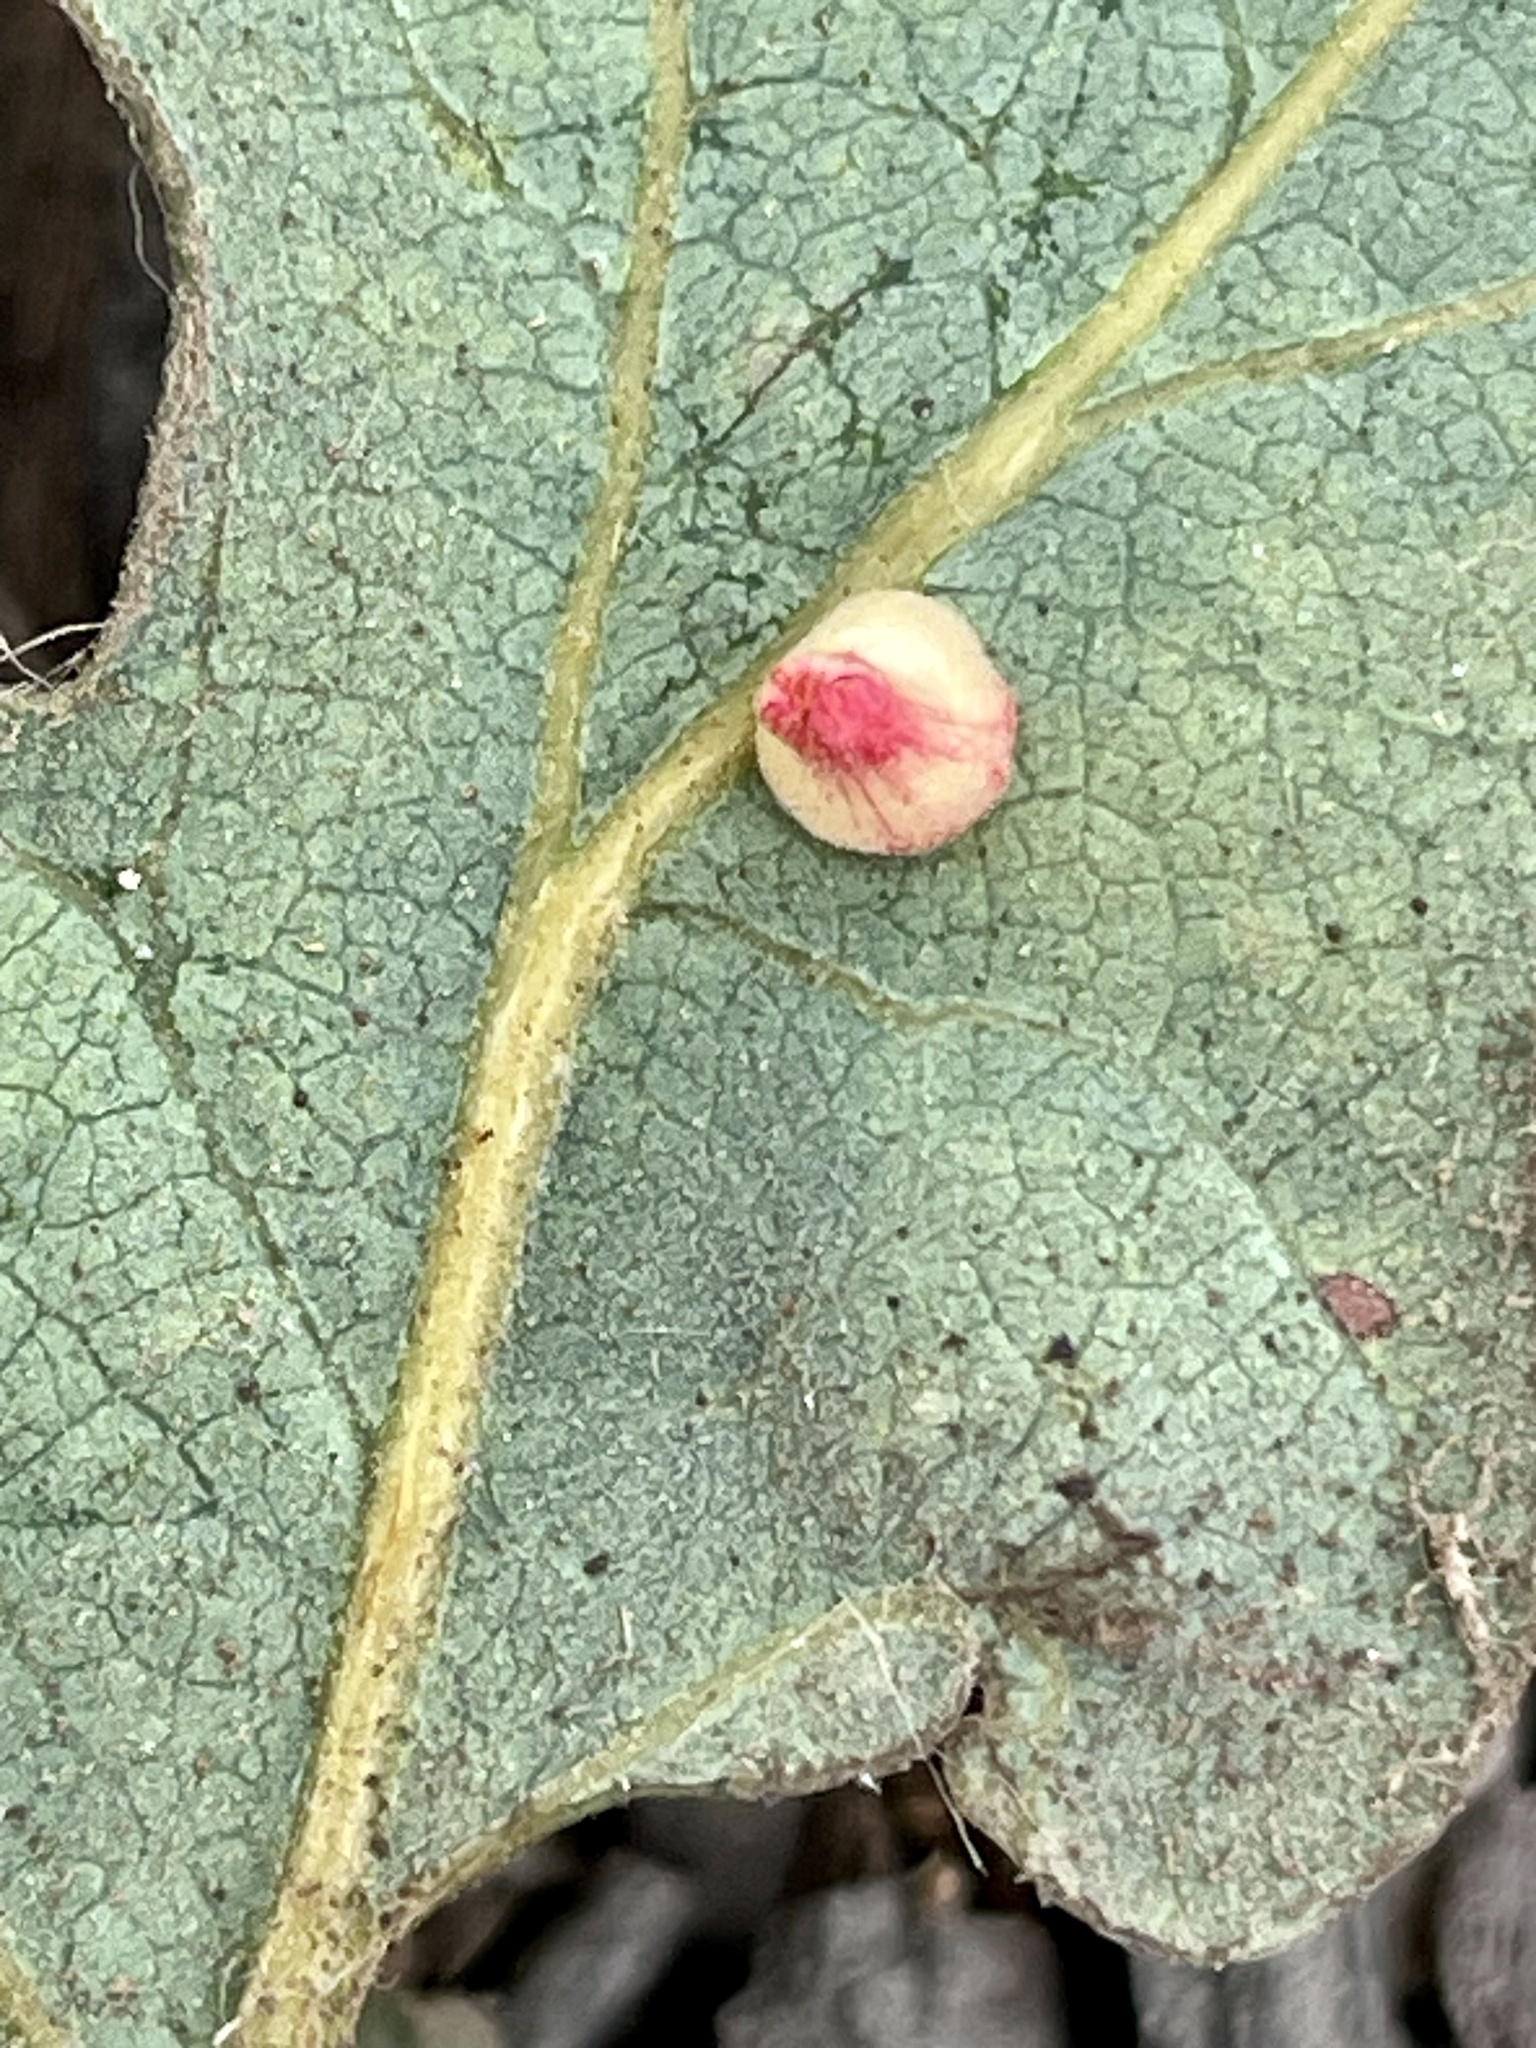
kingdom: Plantae
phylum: Tracheophyta
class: Magnoliopsida
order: Fagales
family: Fagaceae
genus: Quercus
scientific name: Quercus lobata
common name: Valley oak
